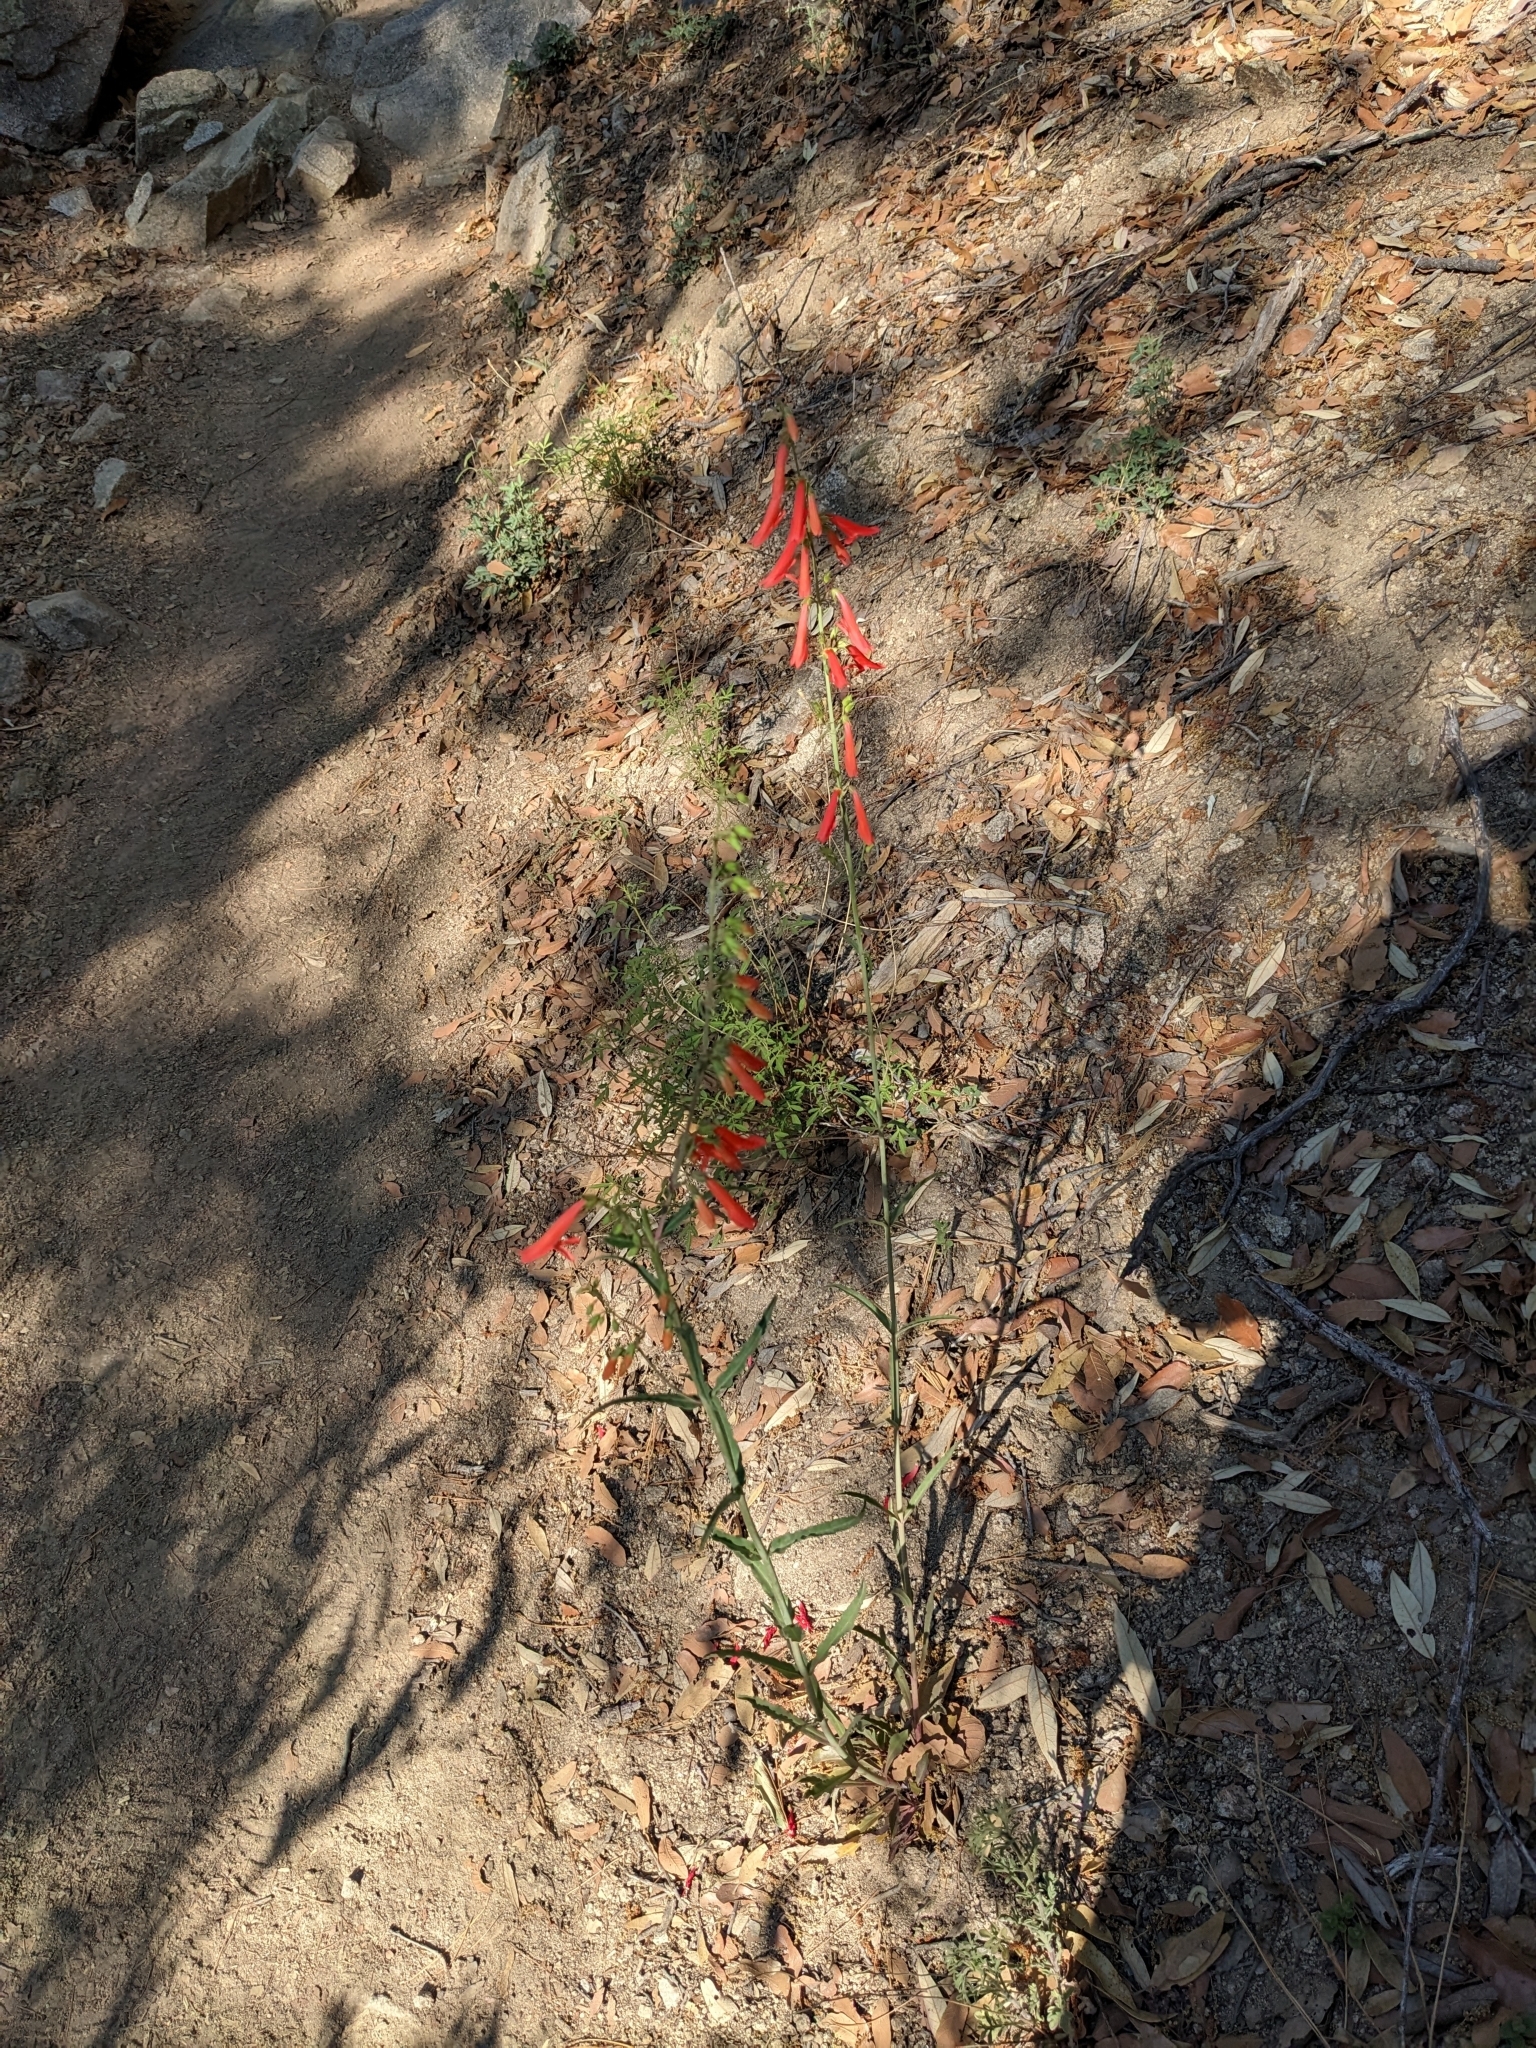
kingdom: Plantae
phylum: Tracheophyta
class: Magnoliopsida
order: Lamiales
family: Plantaginaceae
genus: Penstemon
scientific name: Penstemon barbatus
